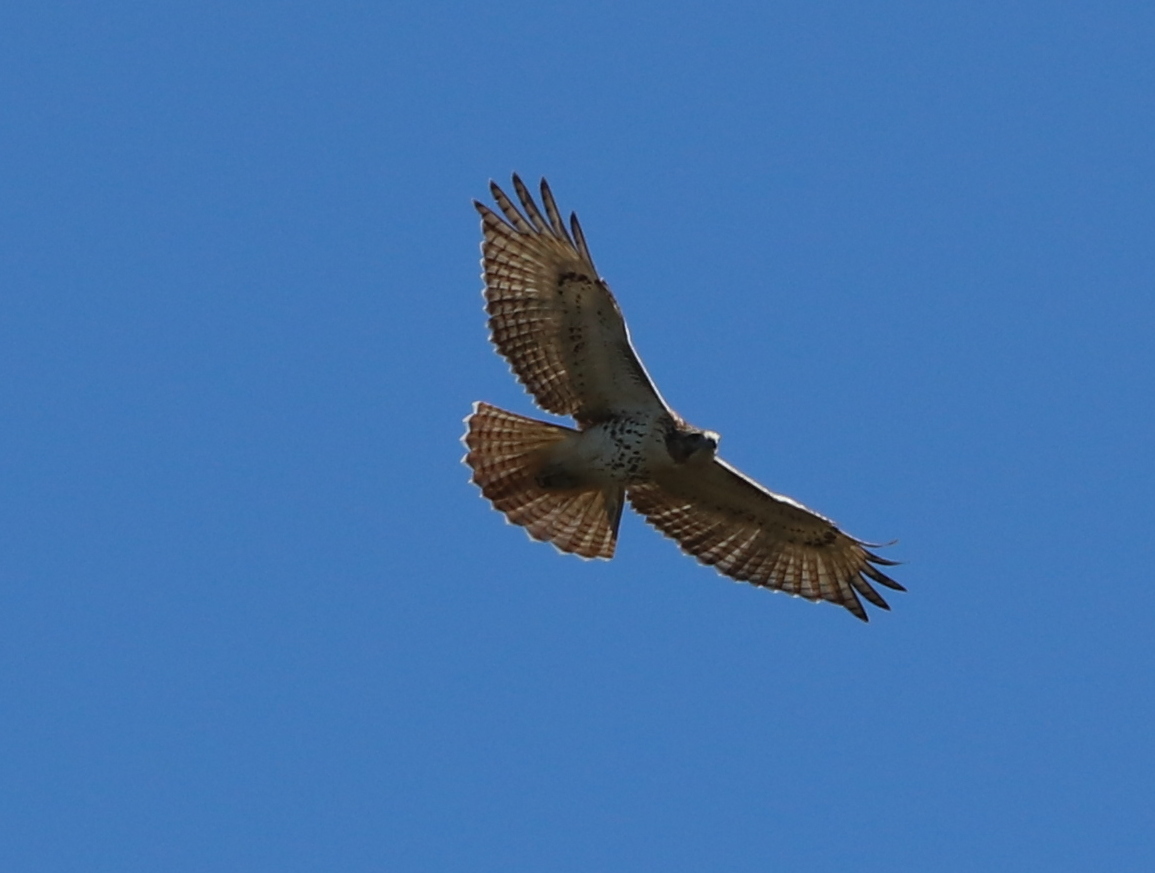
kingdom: Animalia
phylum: Chordata
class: Aves
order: Accipitriformes
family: Accipitridae
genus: Buteo
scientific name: Buteo jamaicensis
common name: Red-tailed hawk
